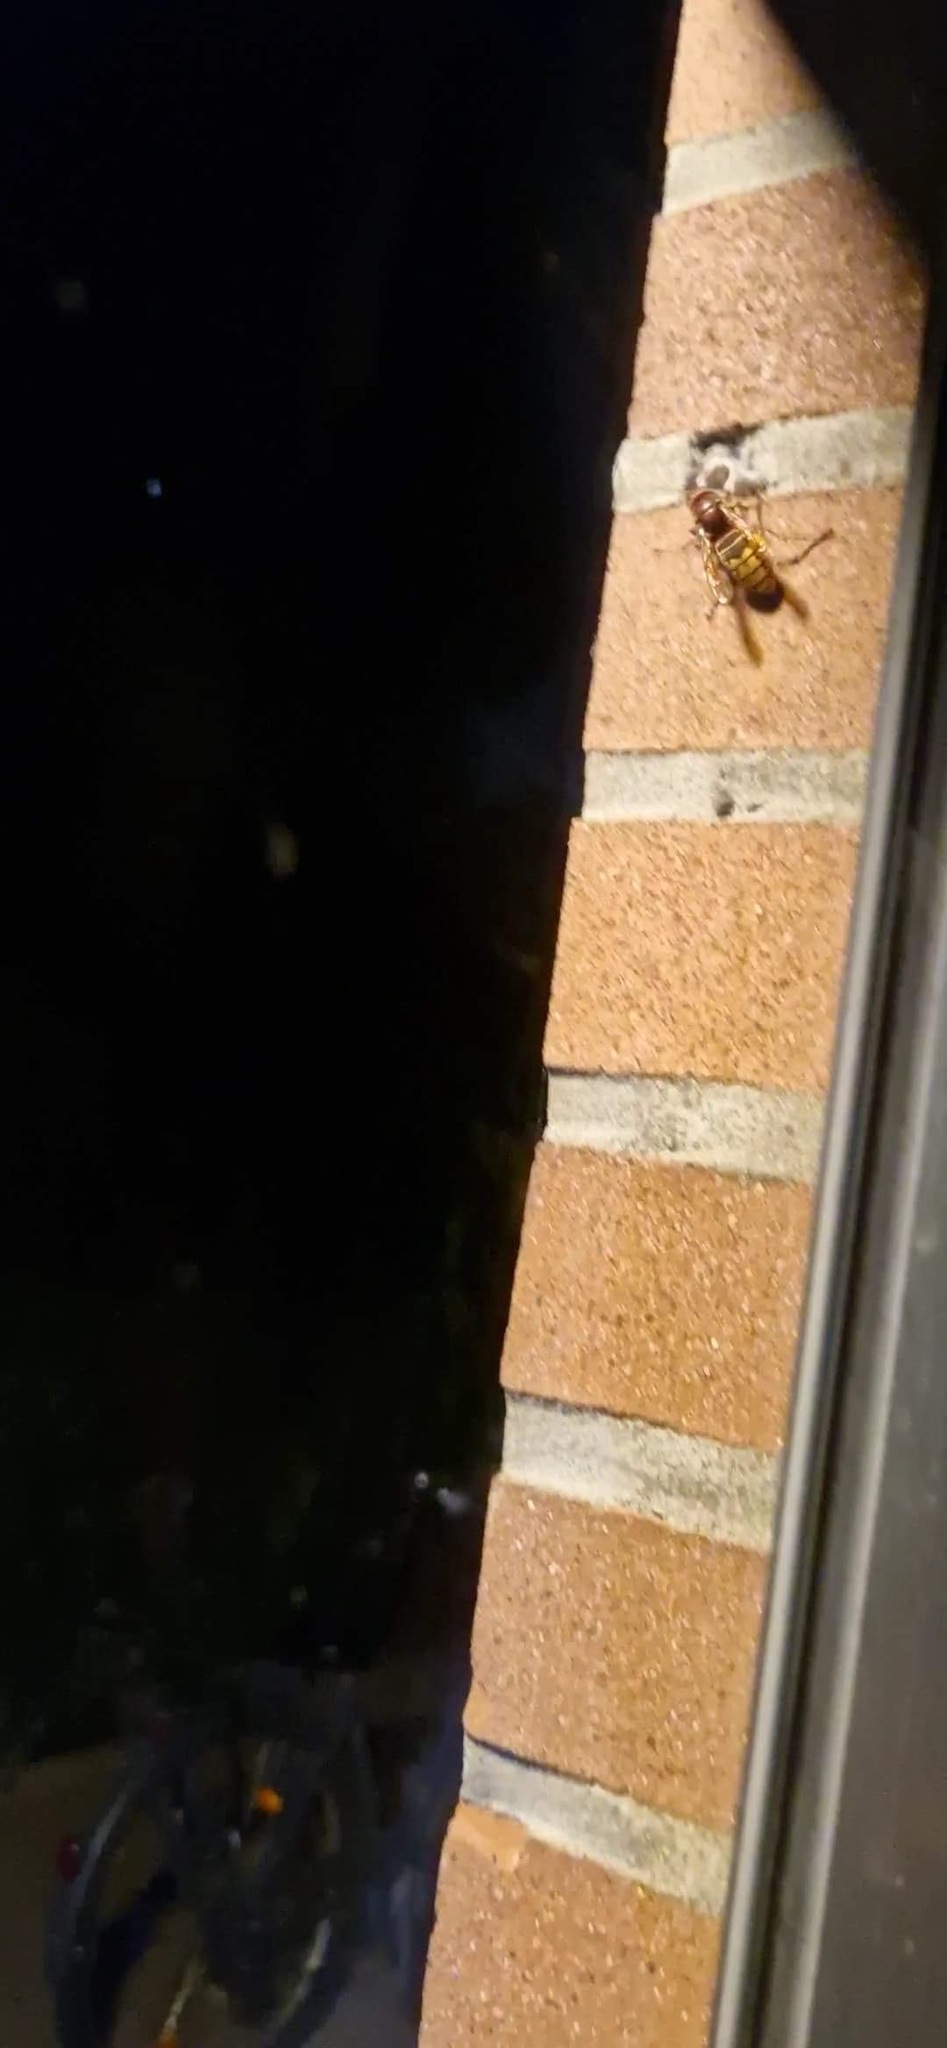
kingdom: Animalia
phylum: Arthropoda
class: Insecta
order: Hymenoptera
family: Vespidae
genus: Vespa
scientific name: Vespa crabro
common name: Hornet
